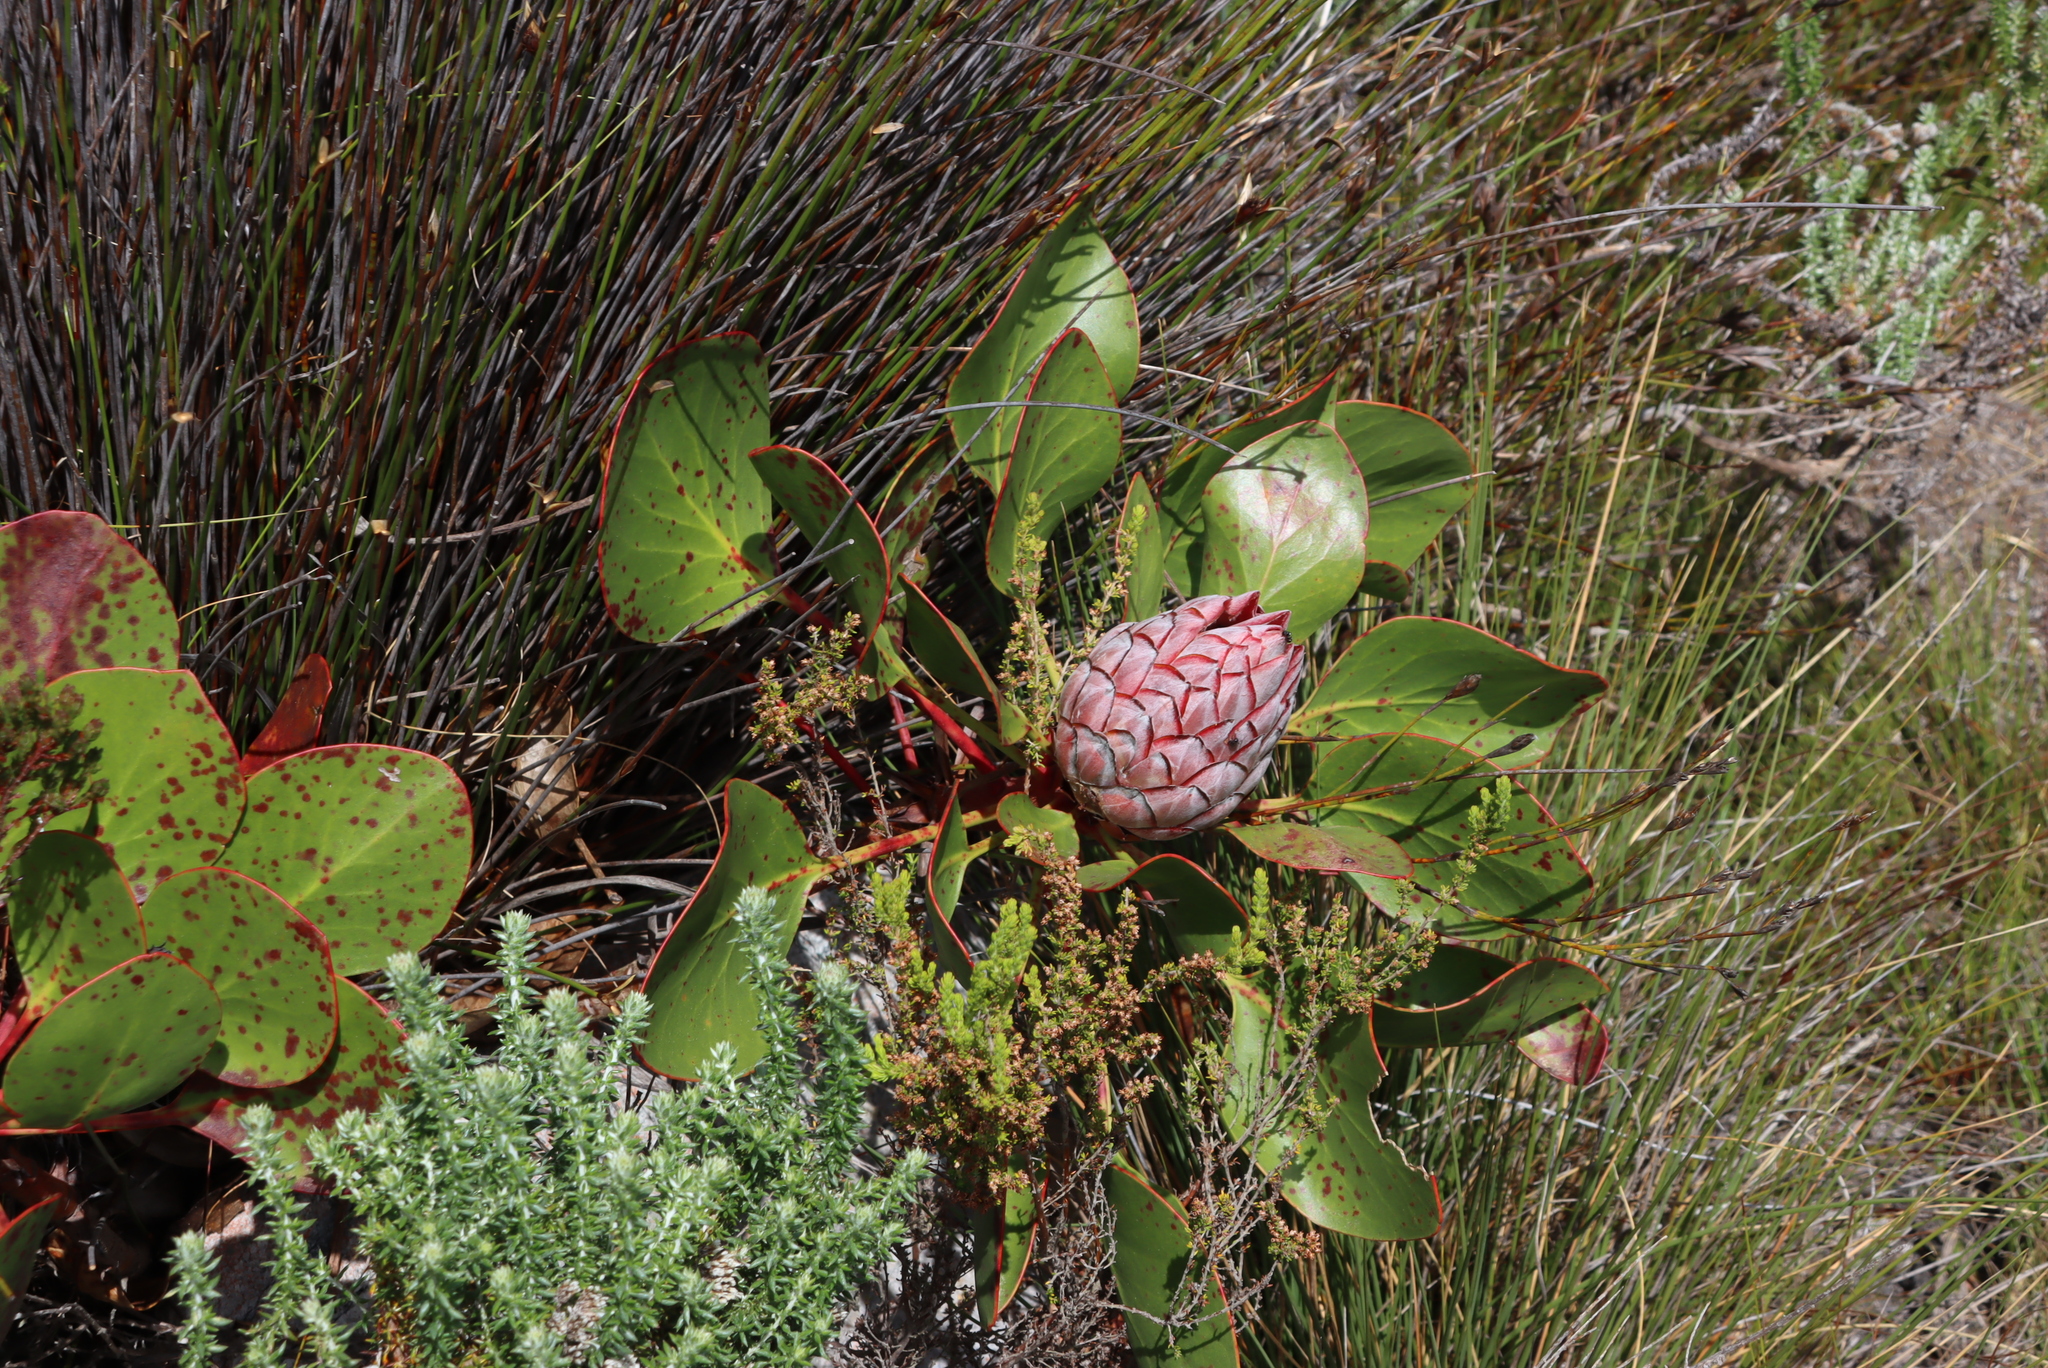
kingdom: Plantae
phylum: Tracheophyta
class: Magnoliopsida
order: Proteales
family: Proteaceae
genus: Protea
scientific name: Protea cynaroides
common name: King protea
